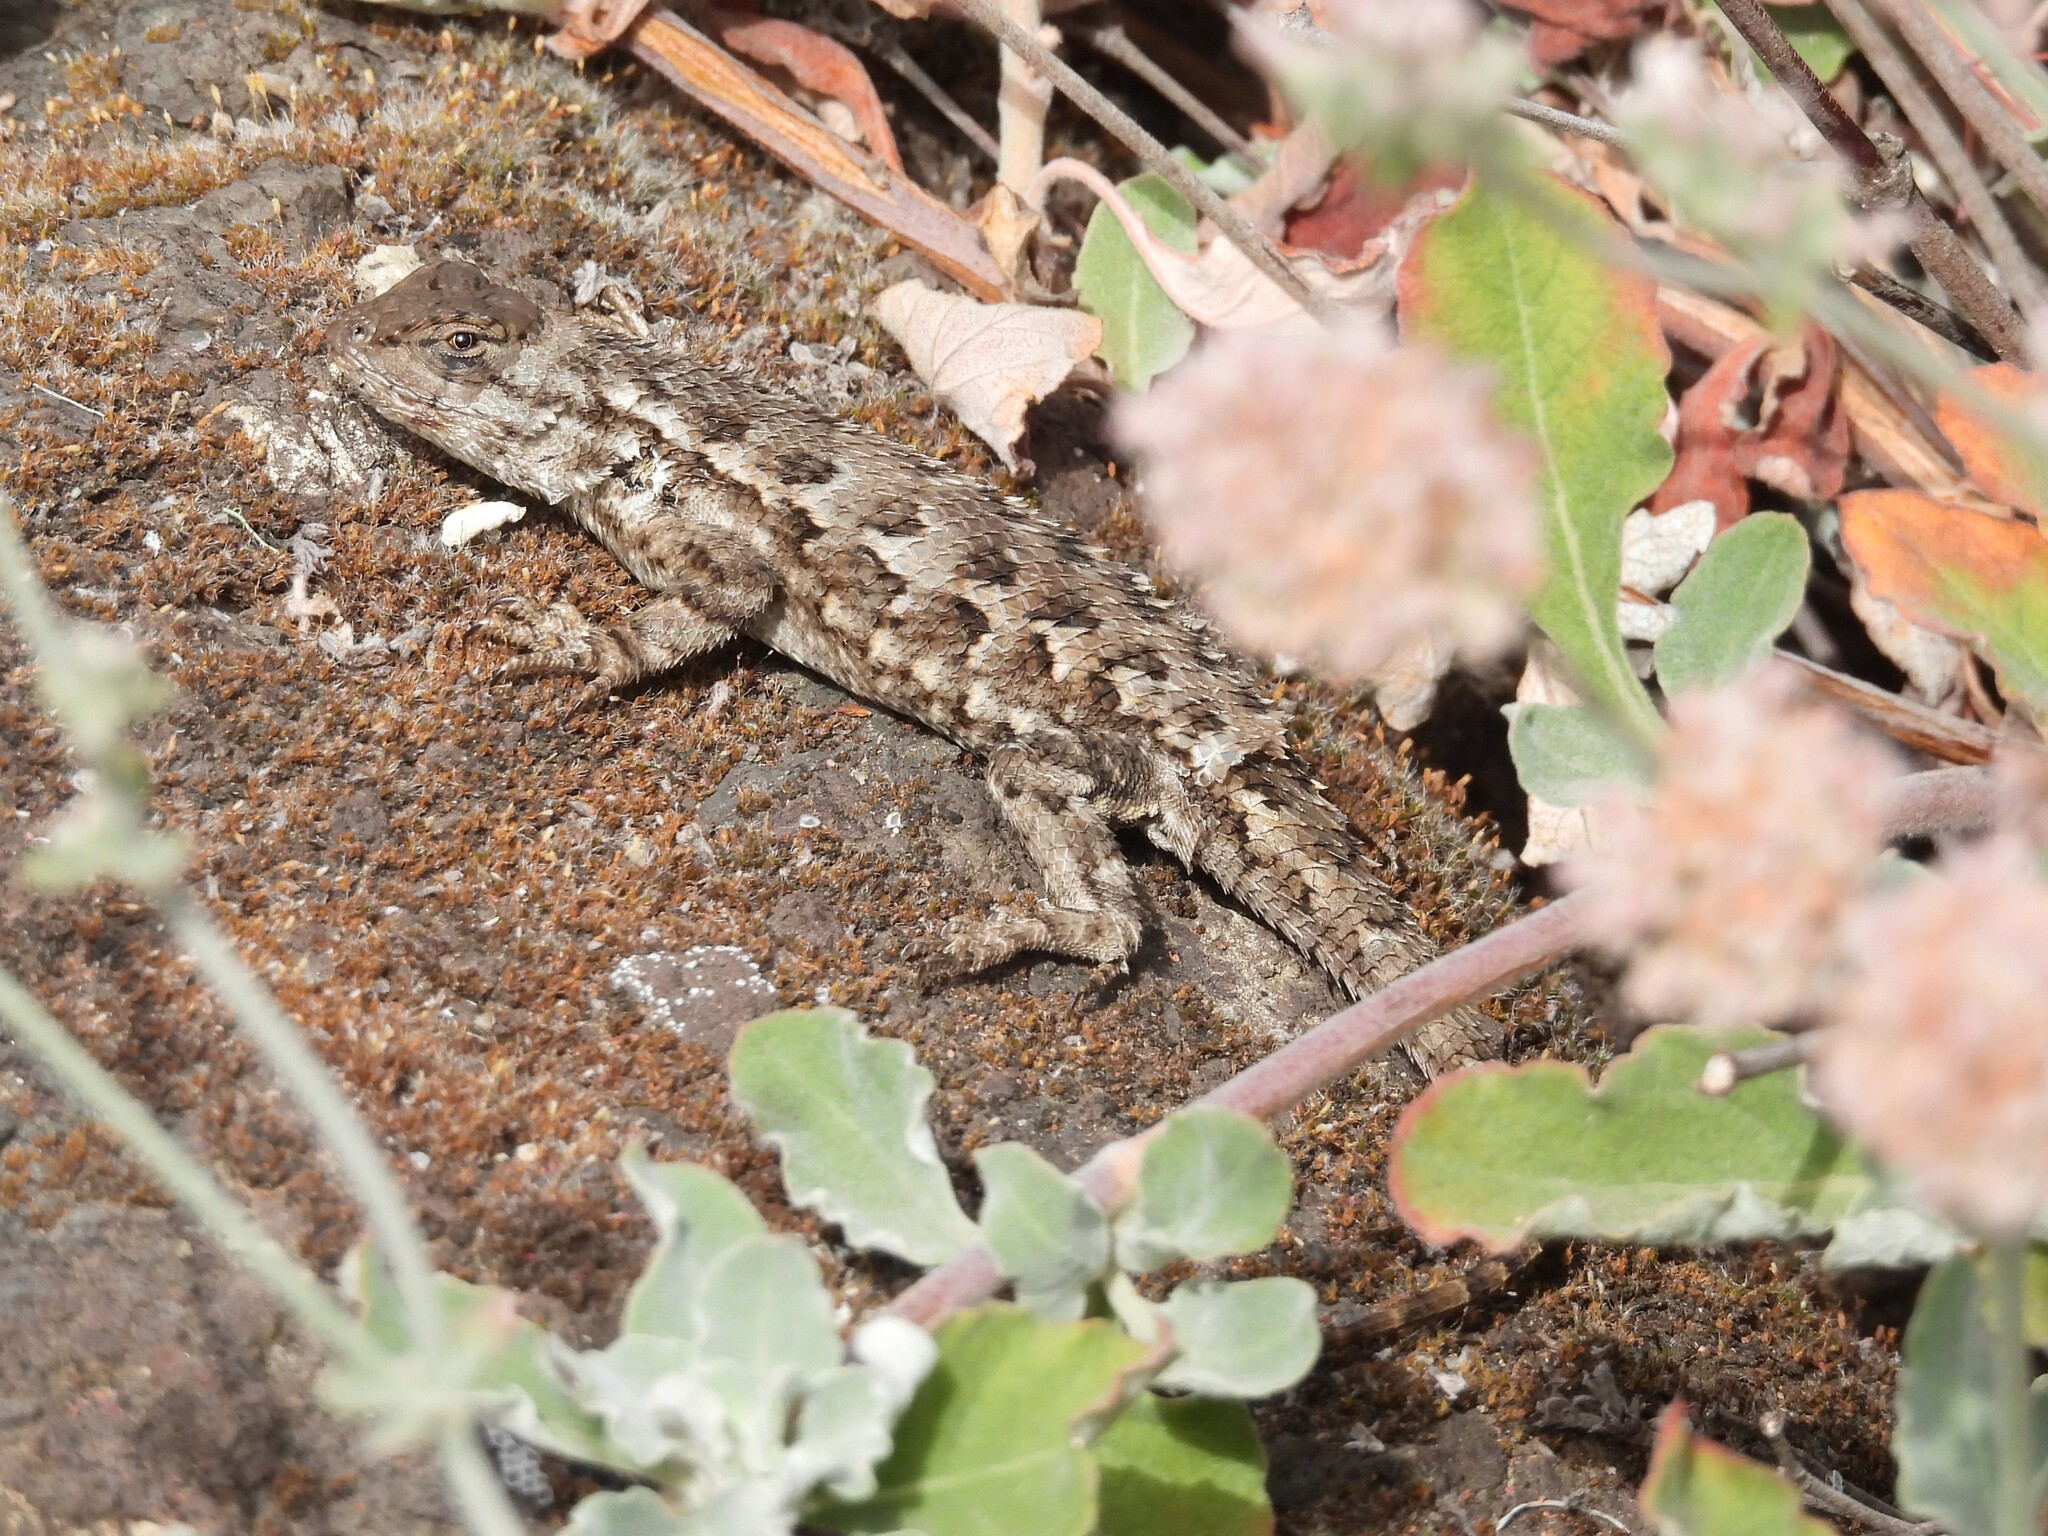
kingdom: Animalia
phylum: Chordata
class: Squamata
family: Phrynosomatidae
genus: Sceloporus
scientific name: Sceloporus occidentalis
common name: Western fence lizard
